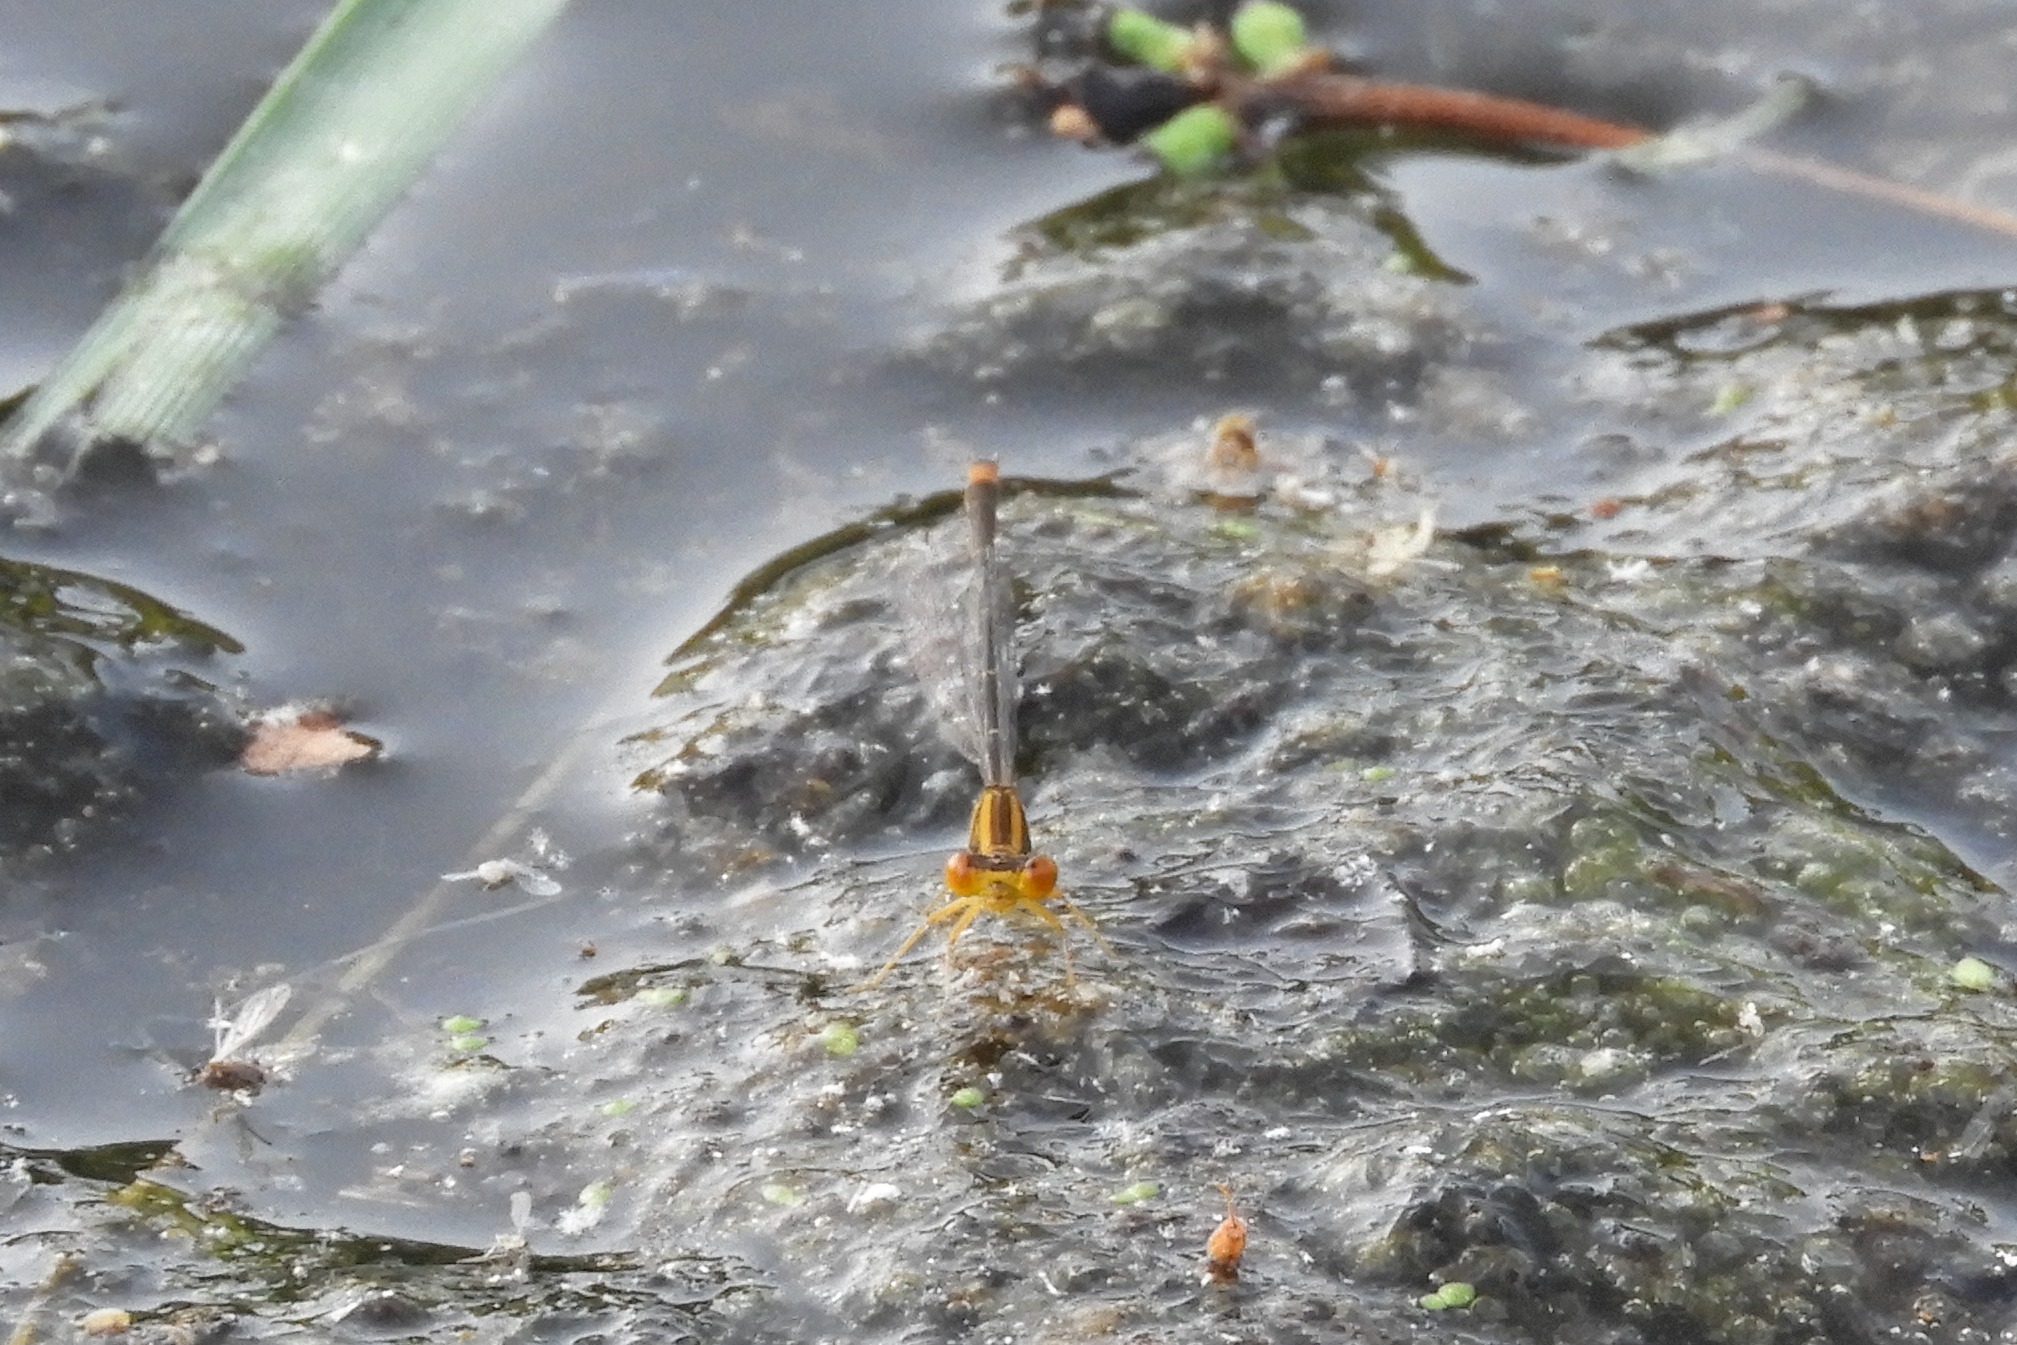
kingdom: Animalia
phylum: Arthropoda
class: Insecta
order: Odonata
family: Coenagrionidae
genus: Enallagma
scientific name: Enallagma signatum
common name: Orange bluet
